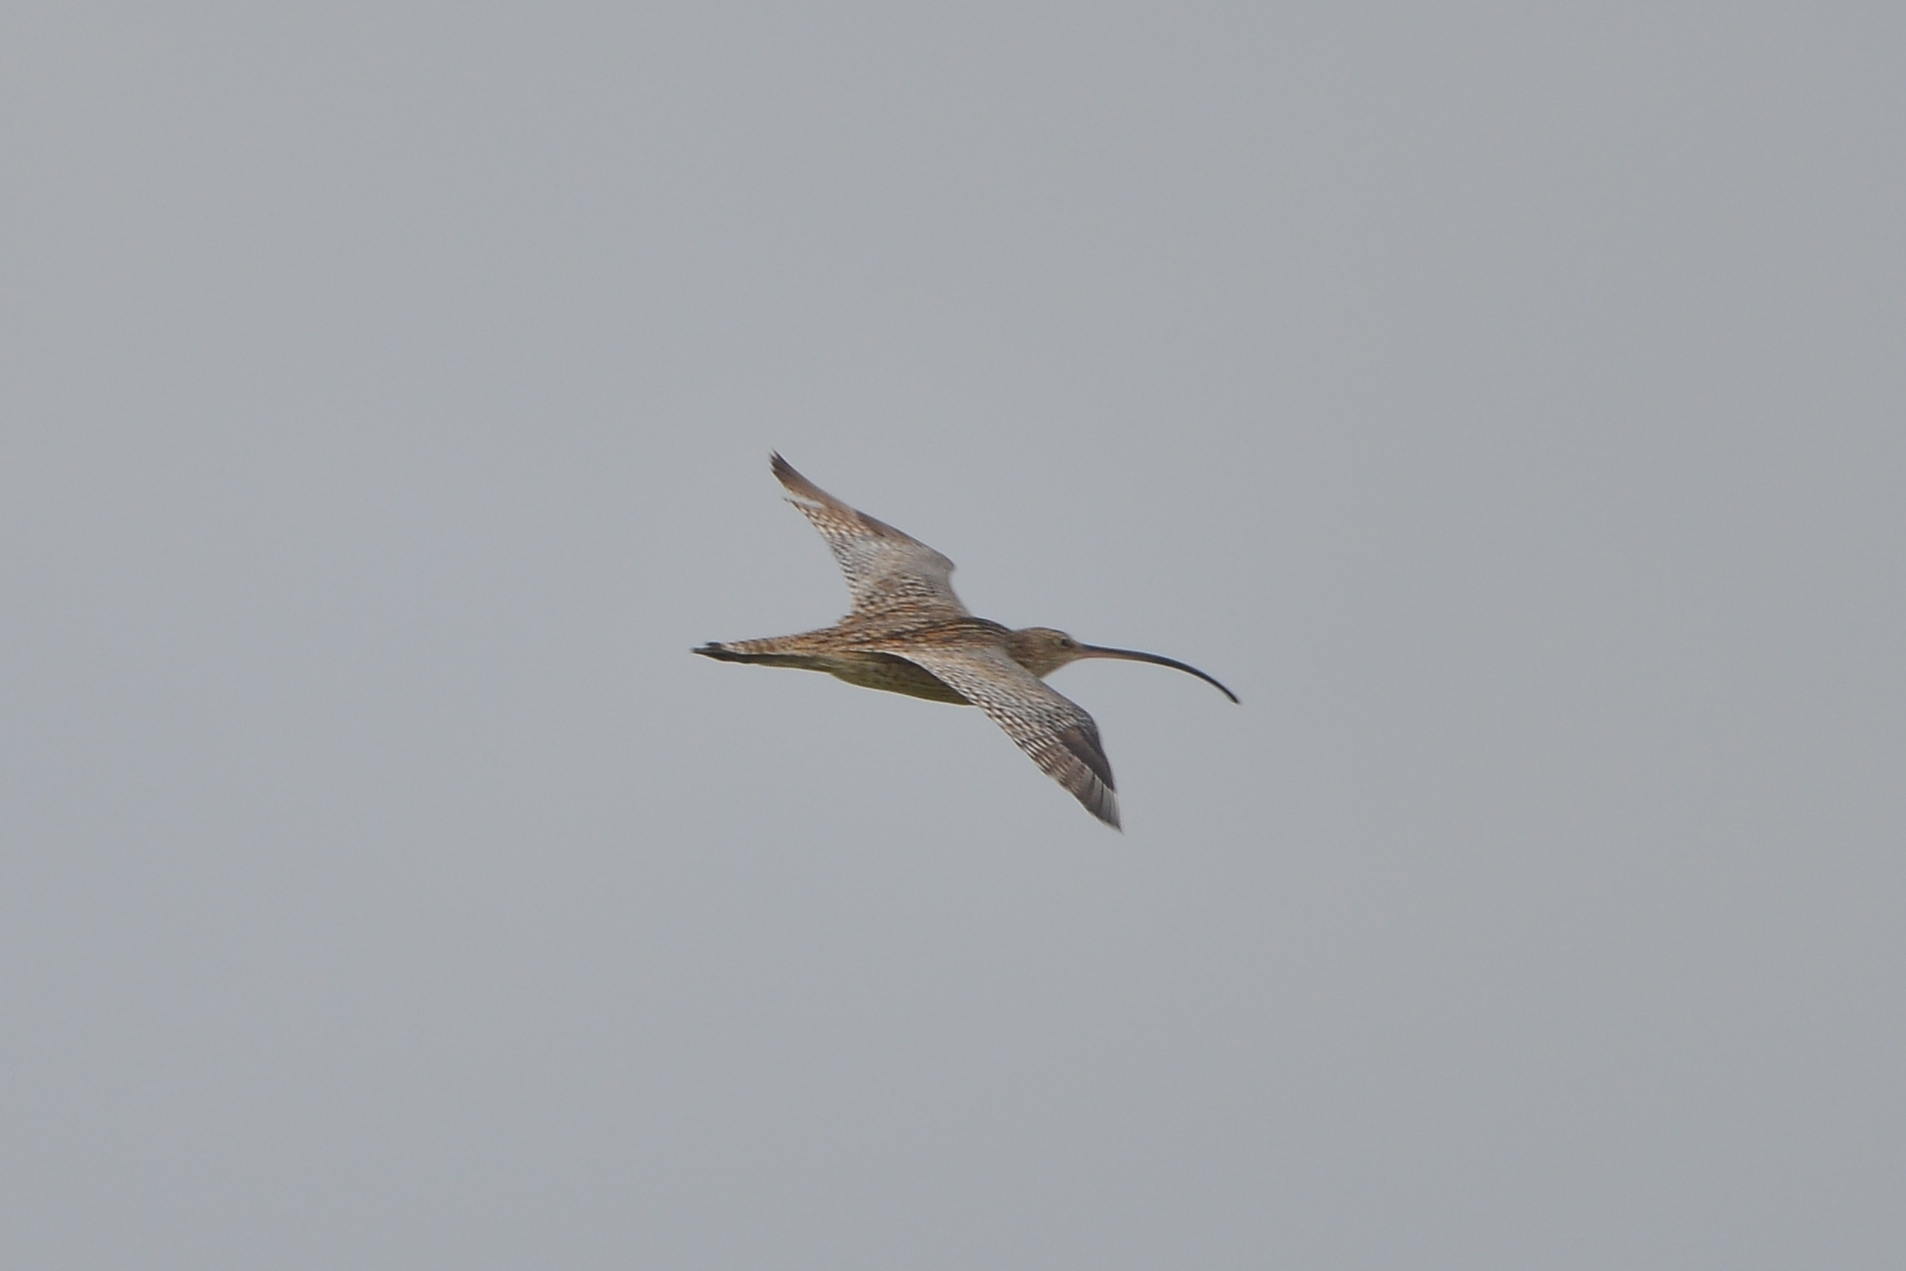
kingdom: Animalia
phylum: Chordata
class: Aves
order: Charadriiformes
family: Scolopacidae
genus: Numenius
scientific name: Numenius madagascariensis
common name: Far eastern curlew
